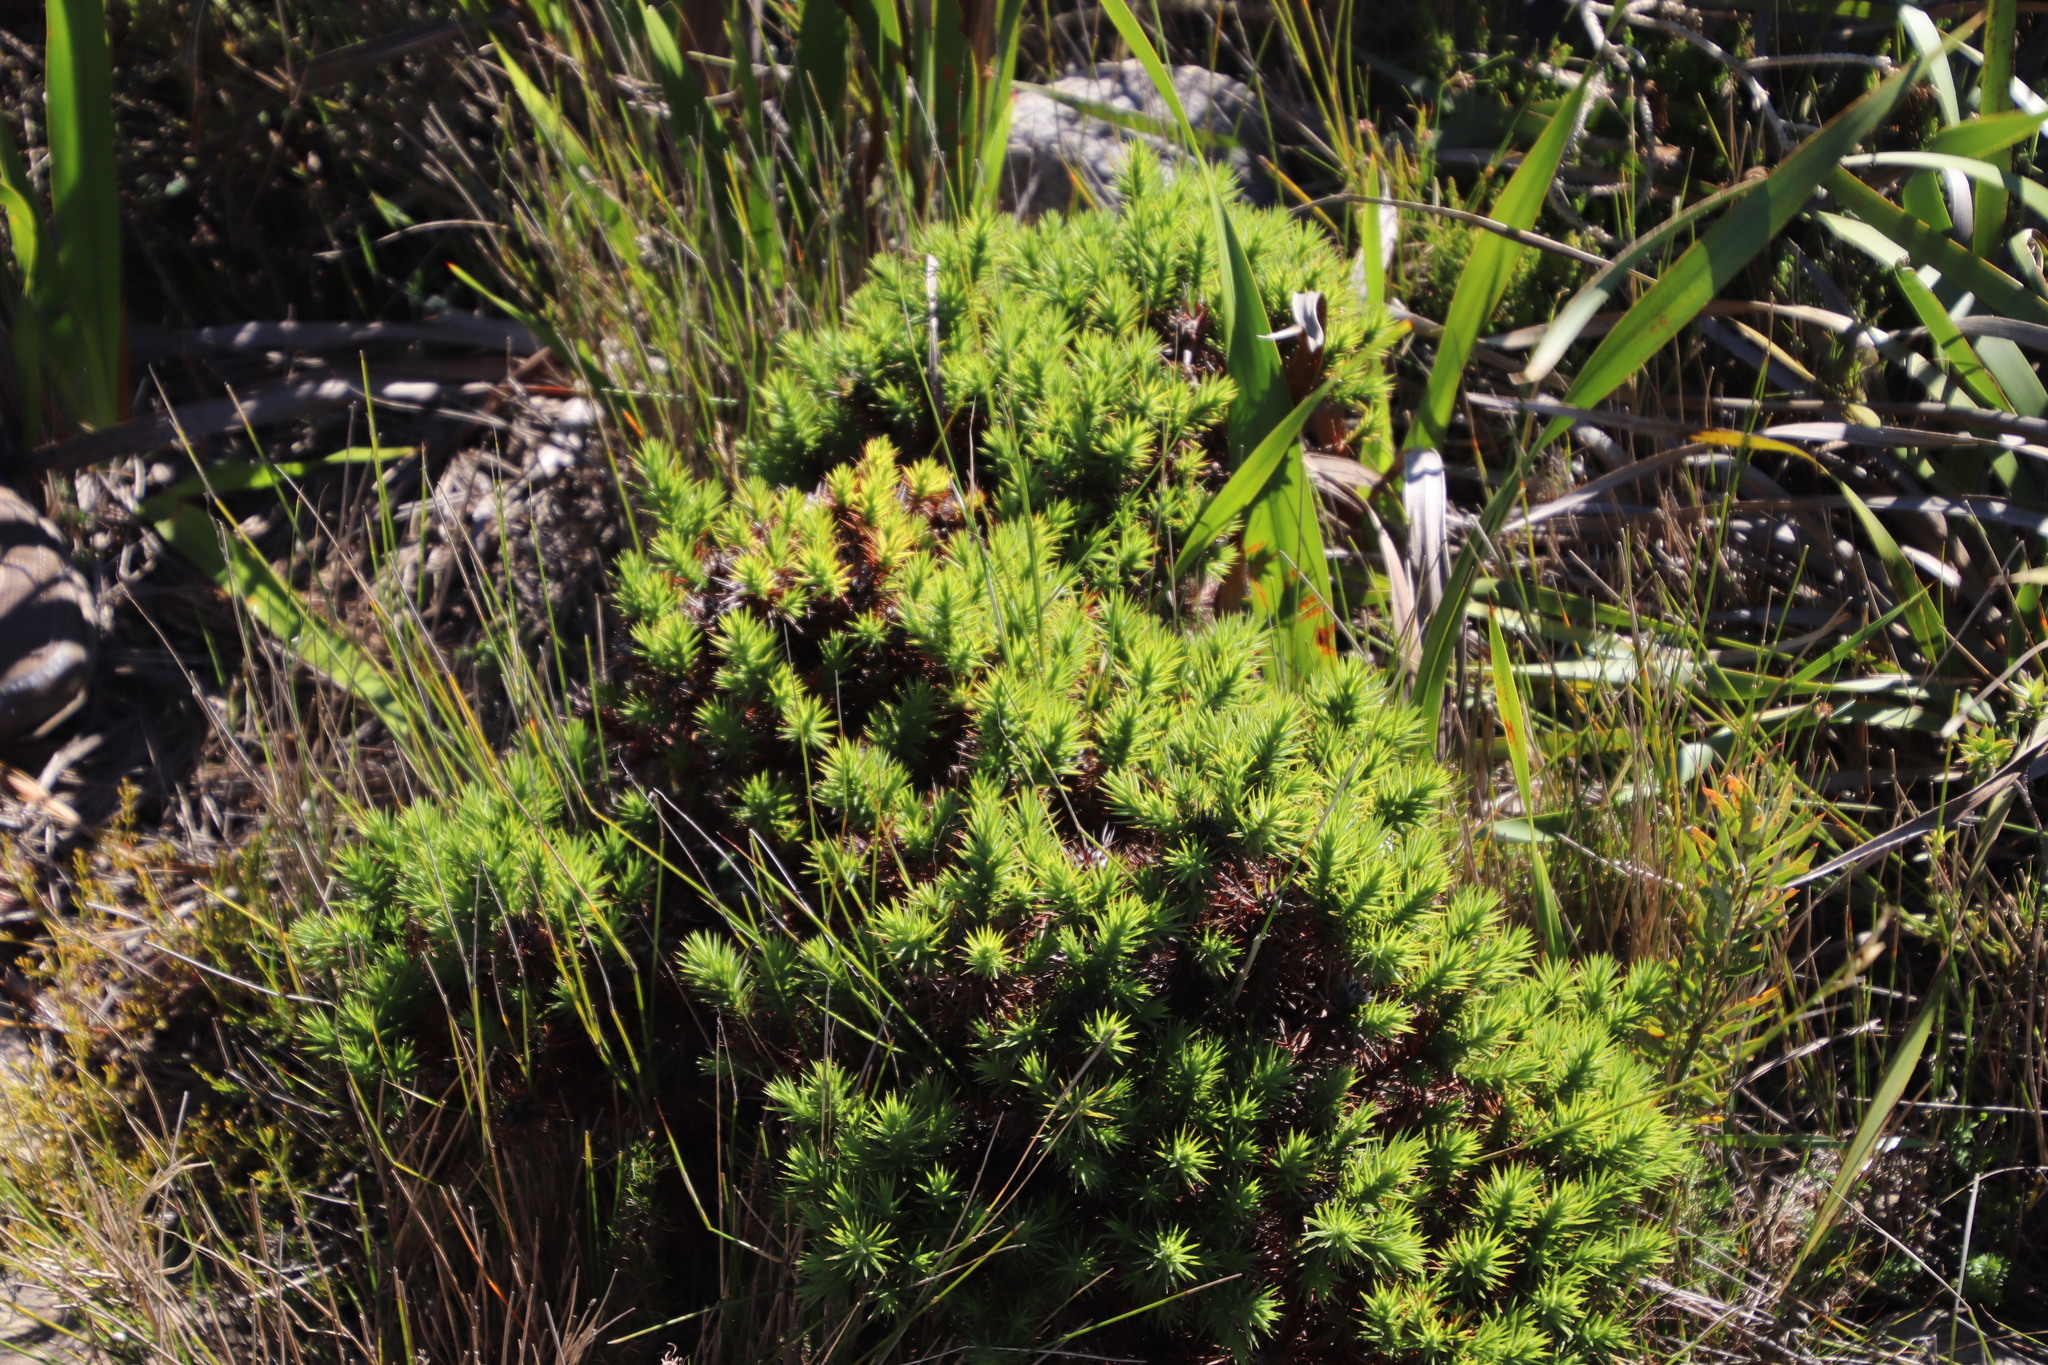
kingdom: Plantae
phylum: Tracheophyta
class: Magnoliopsida
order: Fabales
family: Fabaceae
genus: Aspalathus
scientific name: Aspalathus barbata
